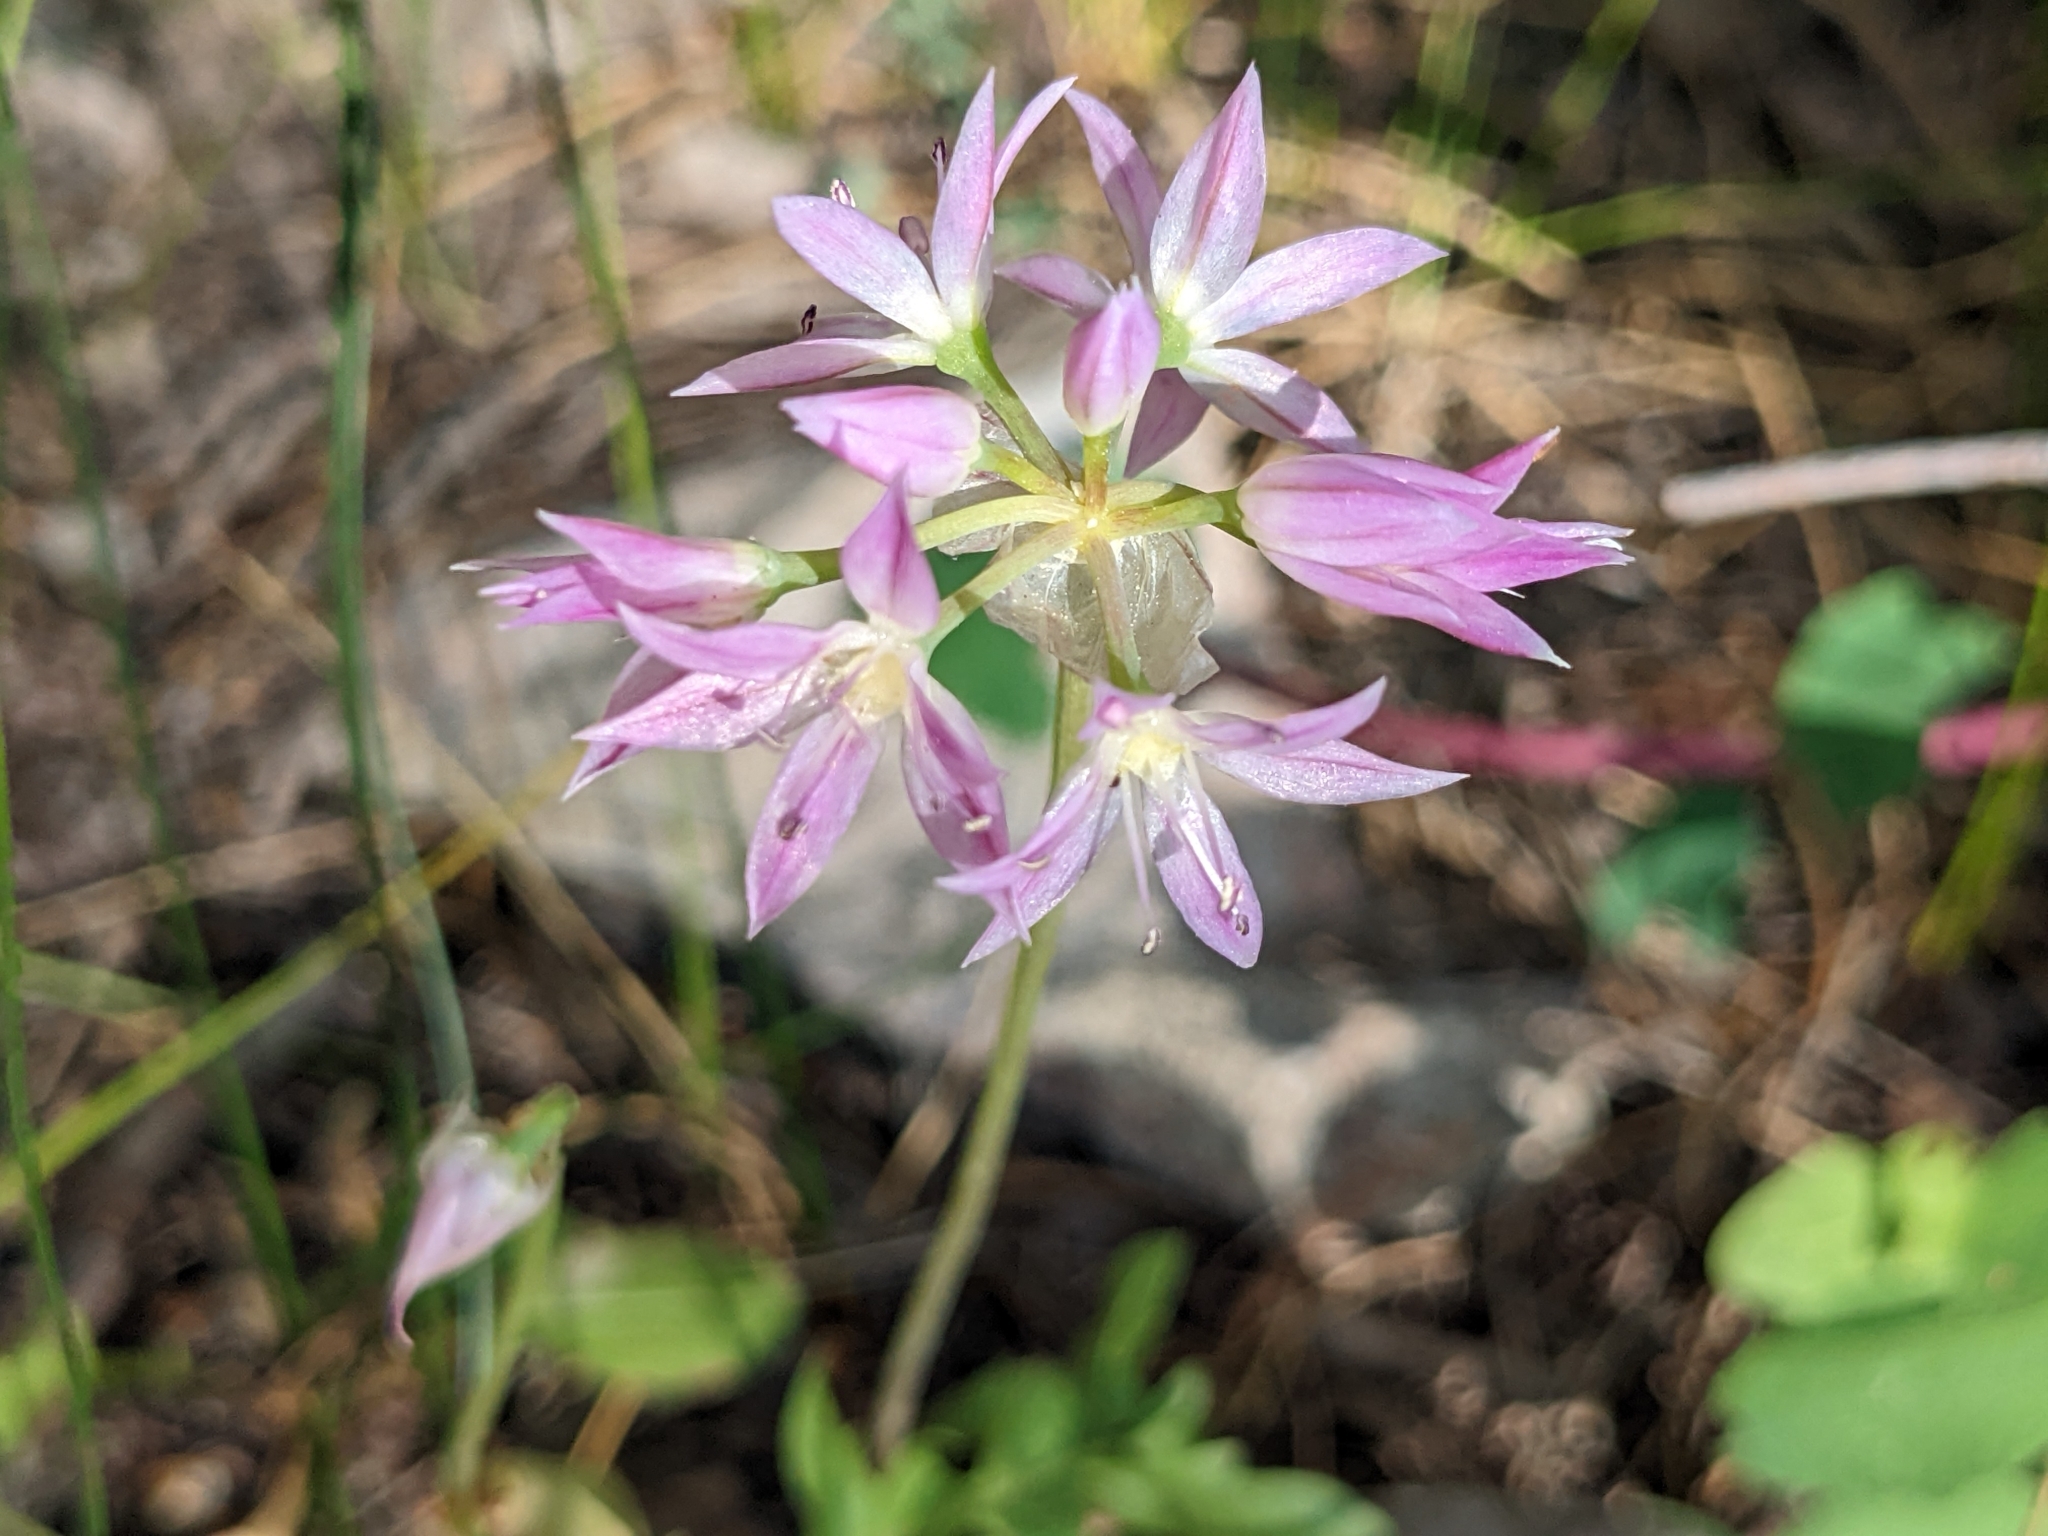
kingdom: Plantae
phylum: Tracheophyta
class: Liliopsida
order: Asparagales
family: Amaryllidaceae
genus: Allium
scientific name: Allium bisceptrum
